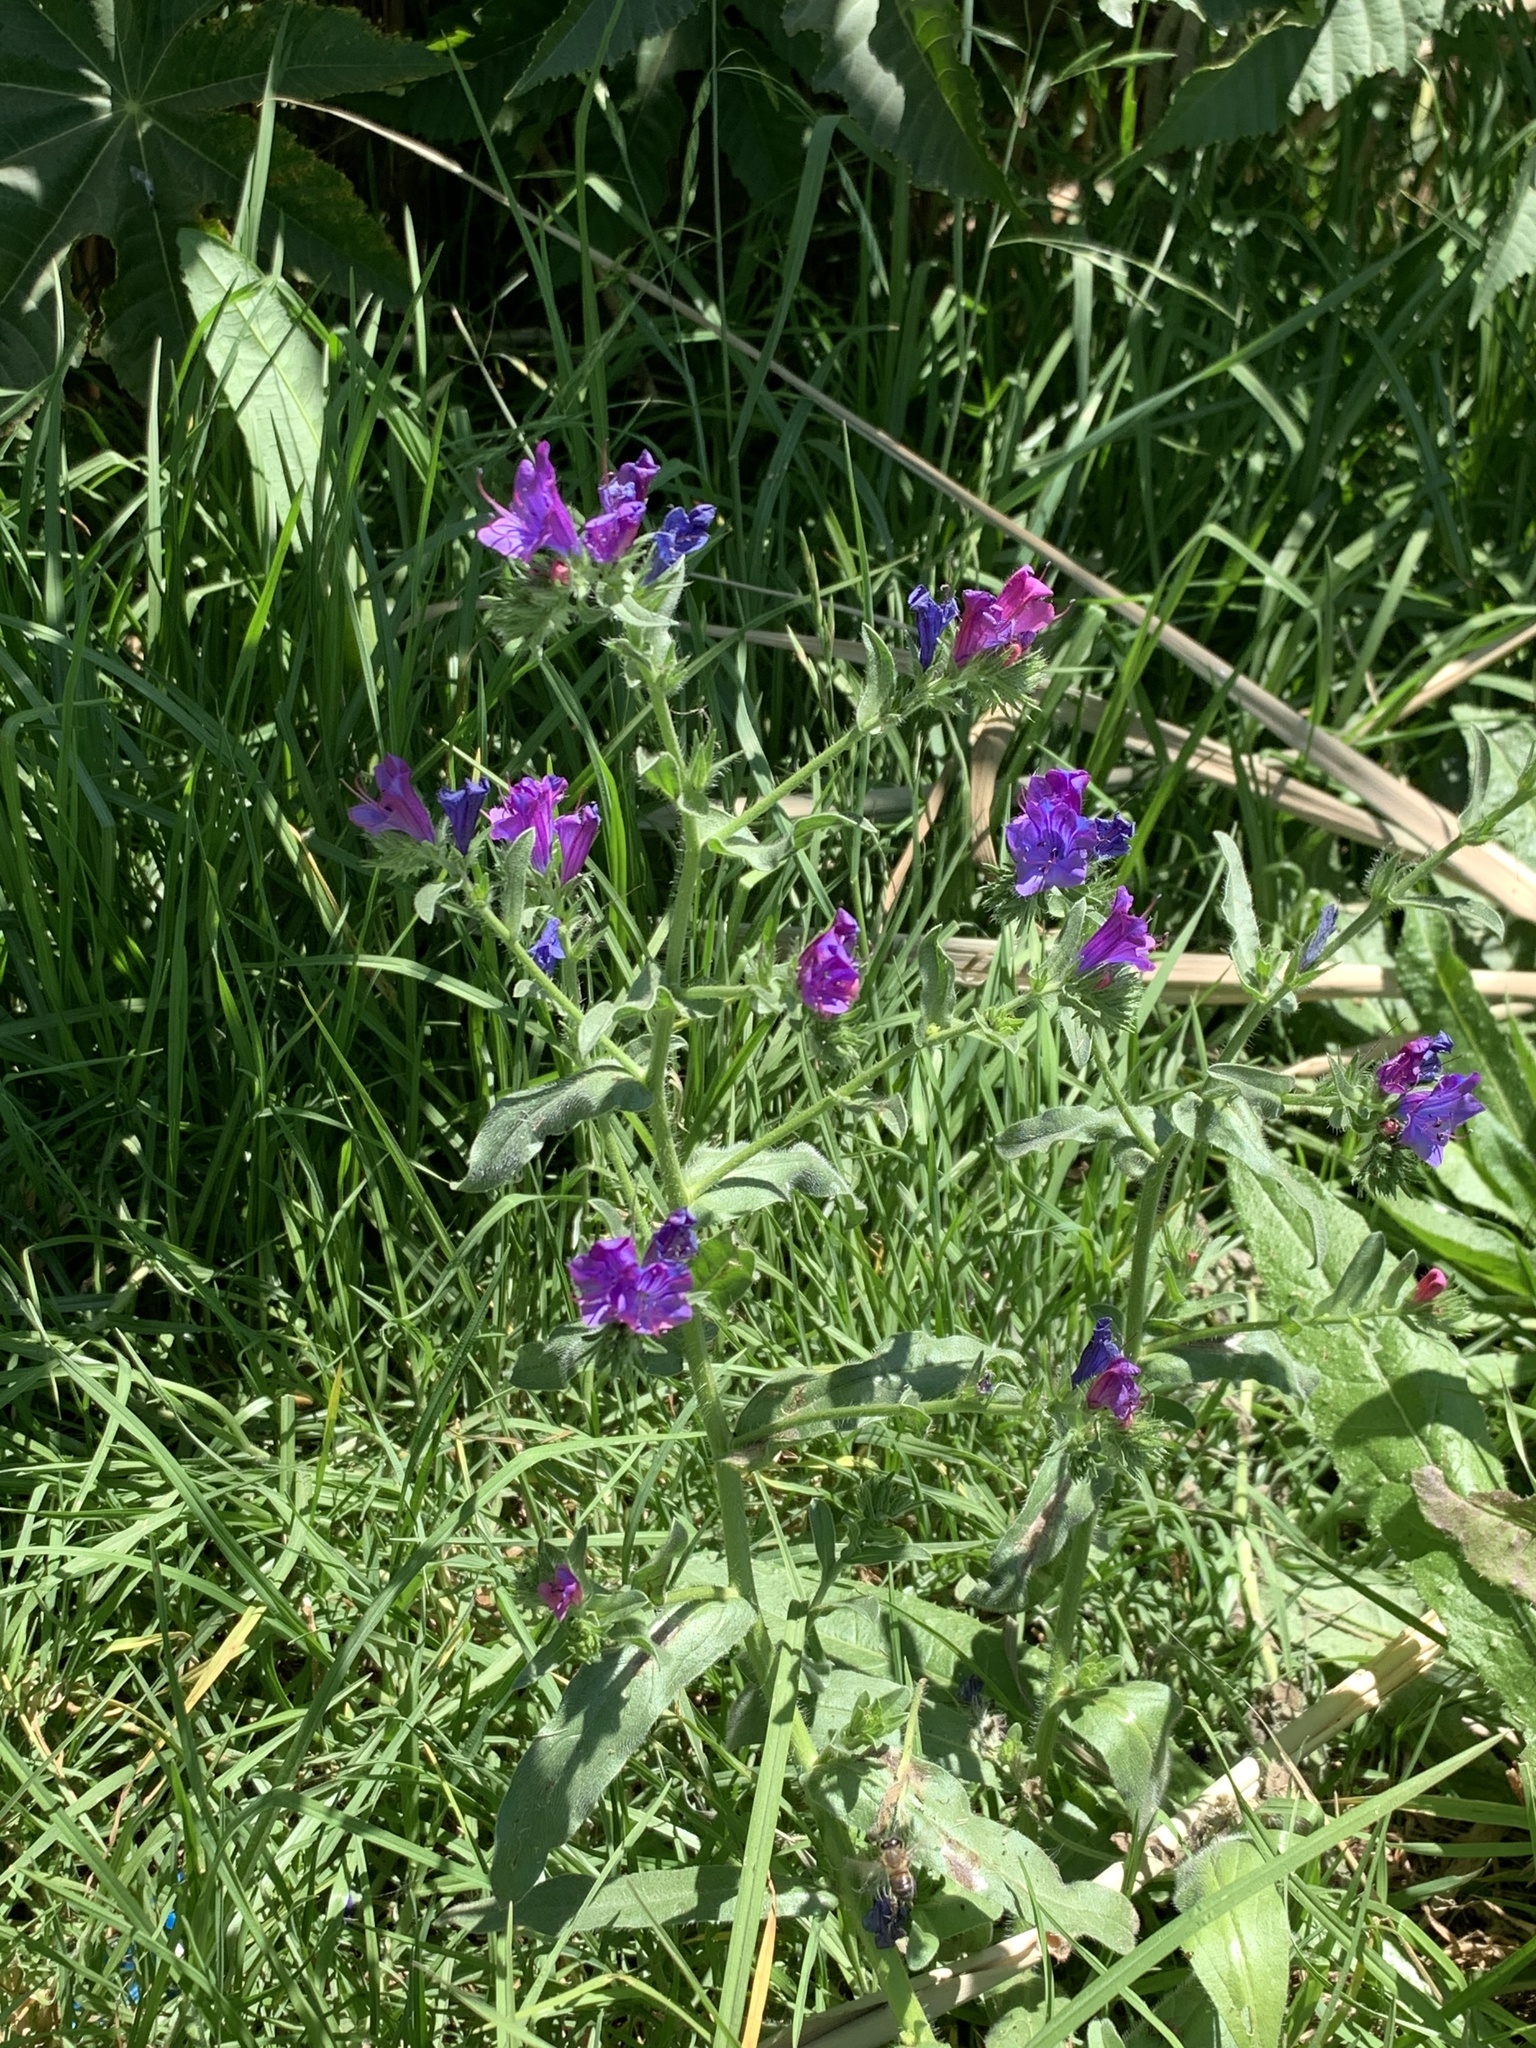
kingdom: Plantae
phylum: Tracheophyta
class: Magnoliopsida
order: Boraginales
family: Boraginaceae
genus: Echium
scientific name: Echium plantagineum
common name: Purple viper's-bugloss
